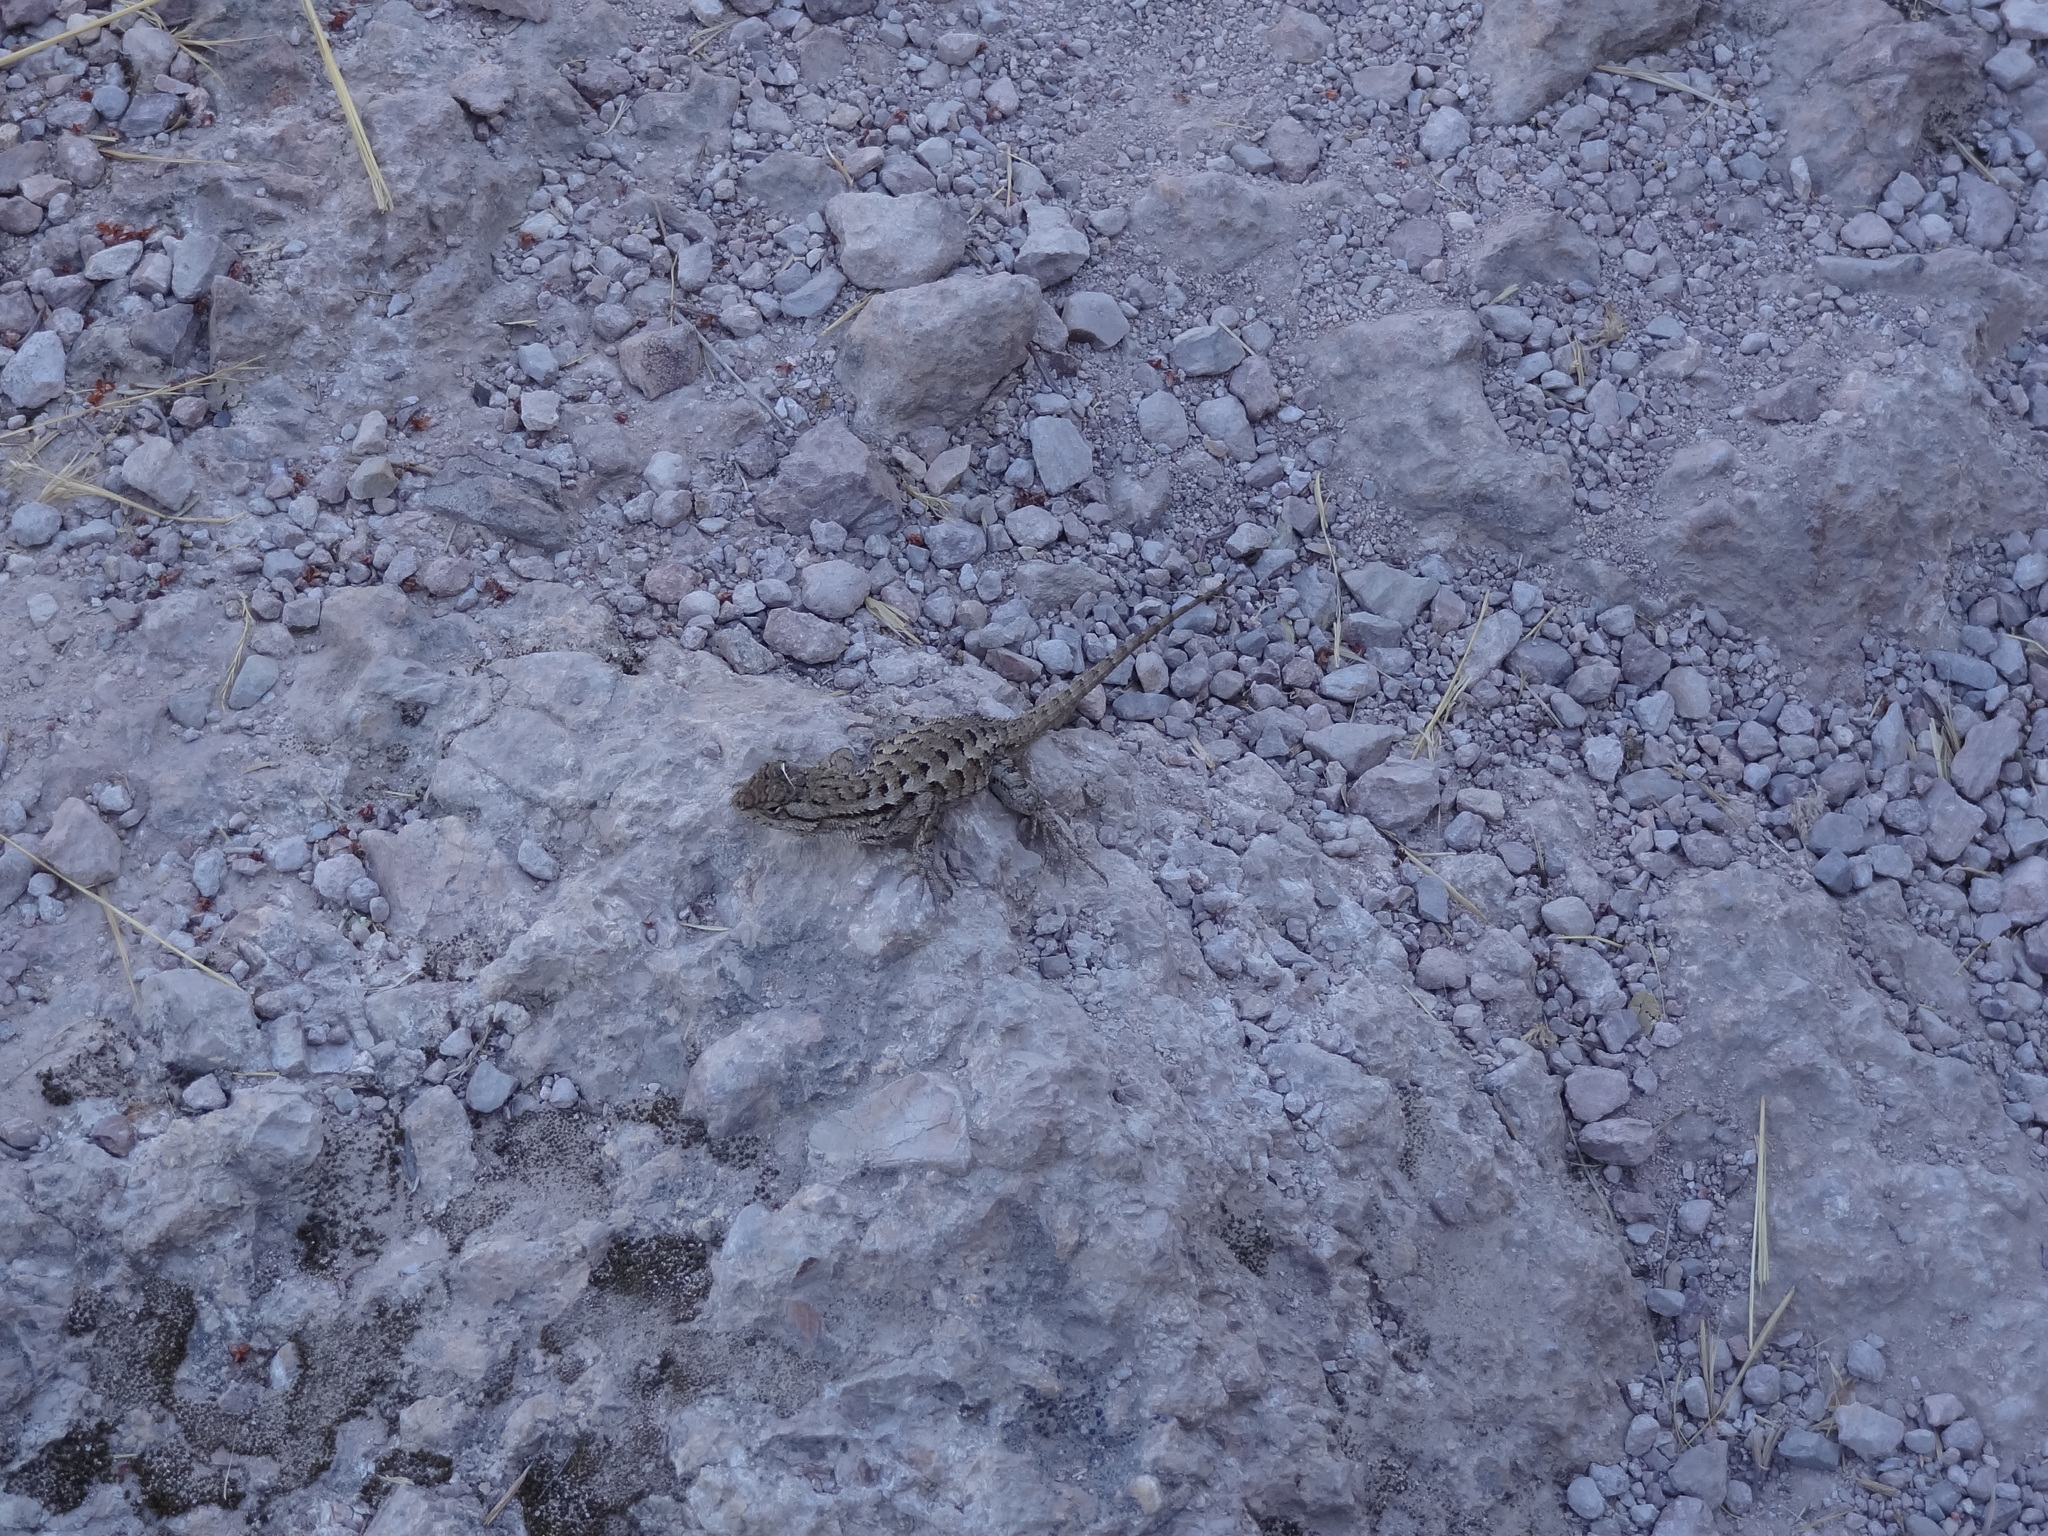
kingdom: Animalia
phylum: Chordata
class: Squamata
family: Phrynosomatidae
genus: Sceloporus
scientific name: Sceloporus occidentalis
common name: Western fence lizard
